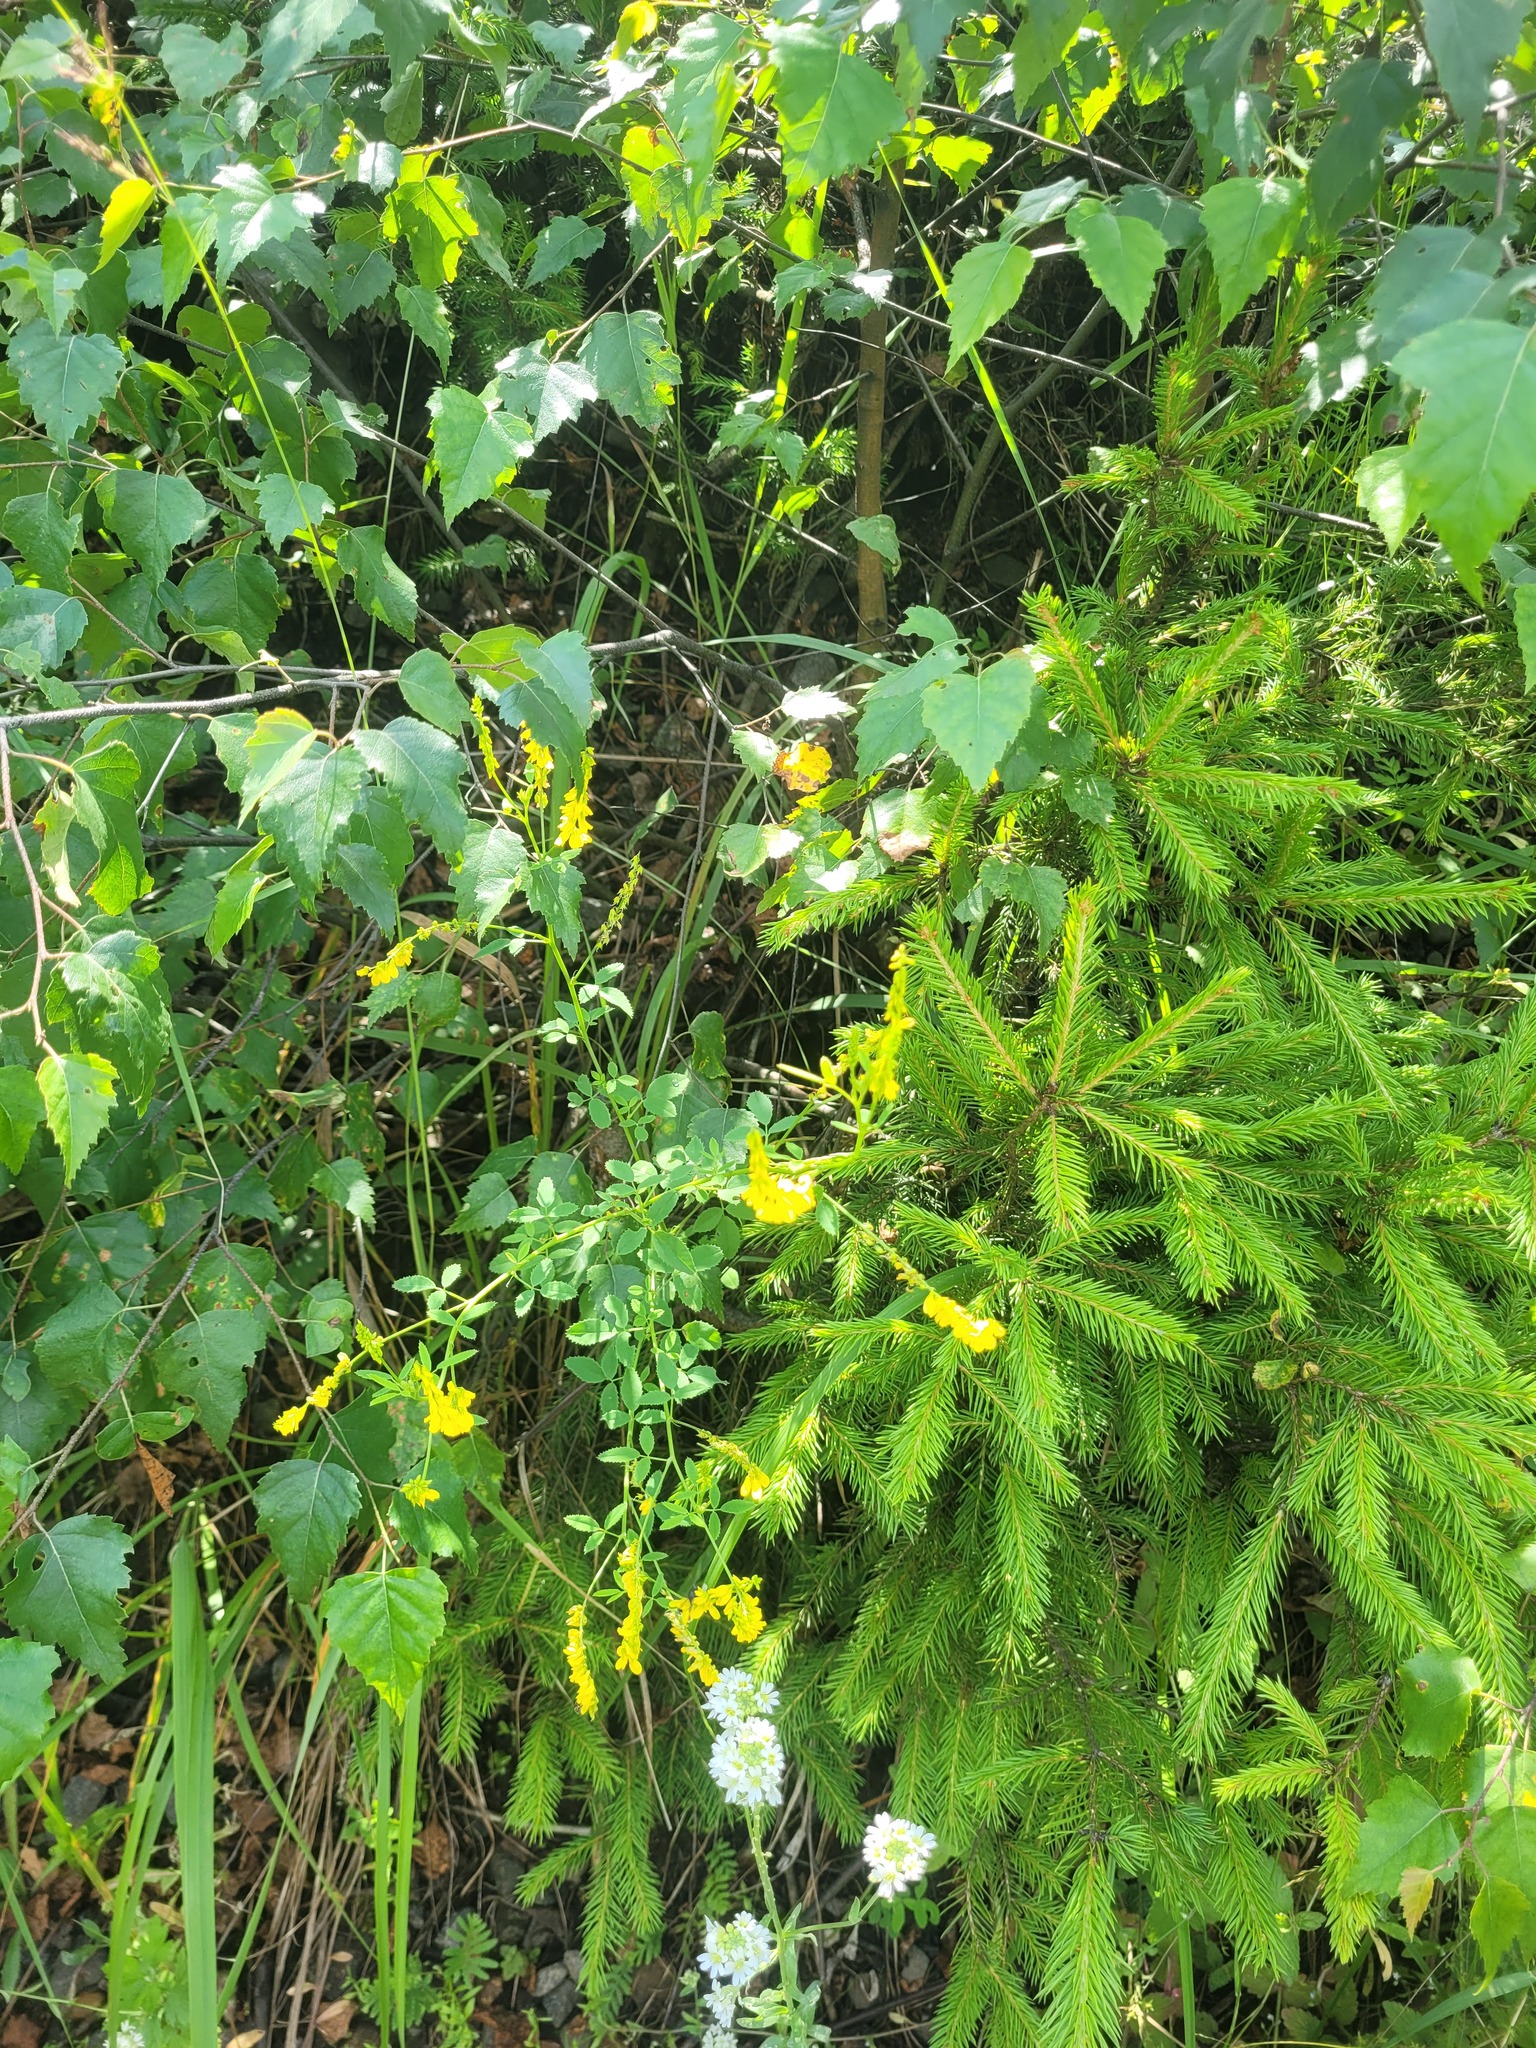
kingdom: Plantae
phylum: Tracheophyta
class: Magnoliopsida
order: Fabales
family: Fabaceae
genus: Melilotus
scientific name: Melilotus officinalis
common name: Sweetclover
